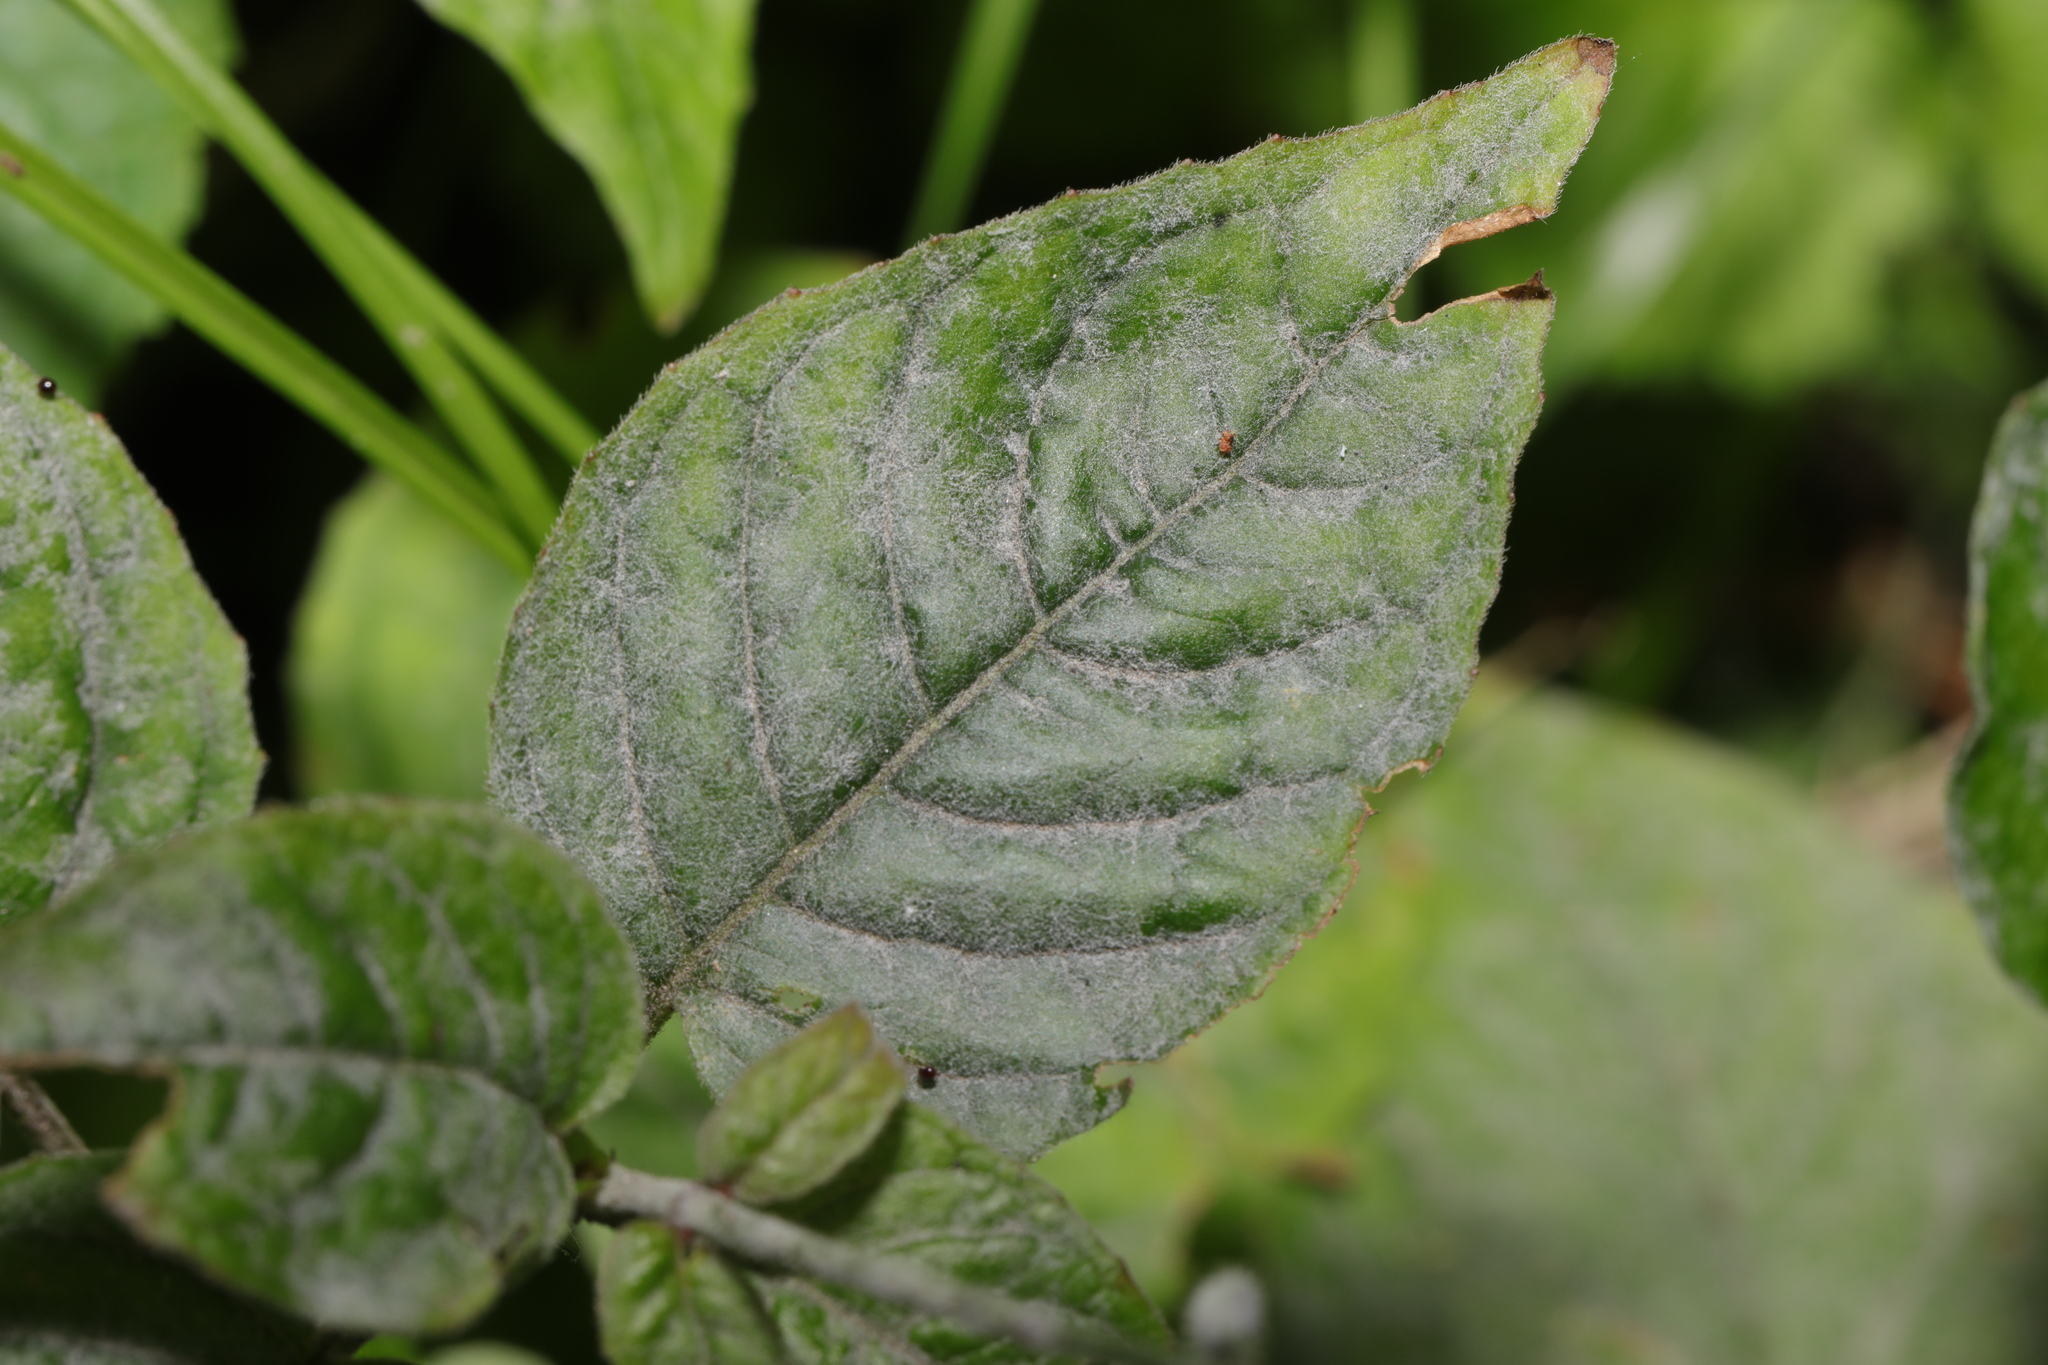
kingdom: Plantae
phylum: Tracheophyta
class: Magnoliopsida
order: Myrtales
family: Onagraceae
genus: Circaea
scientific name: Circaea lutetiana
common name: Enchanter's-nightshade
